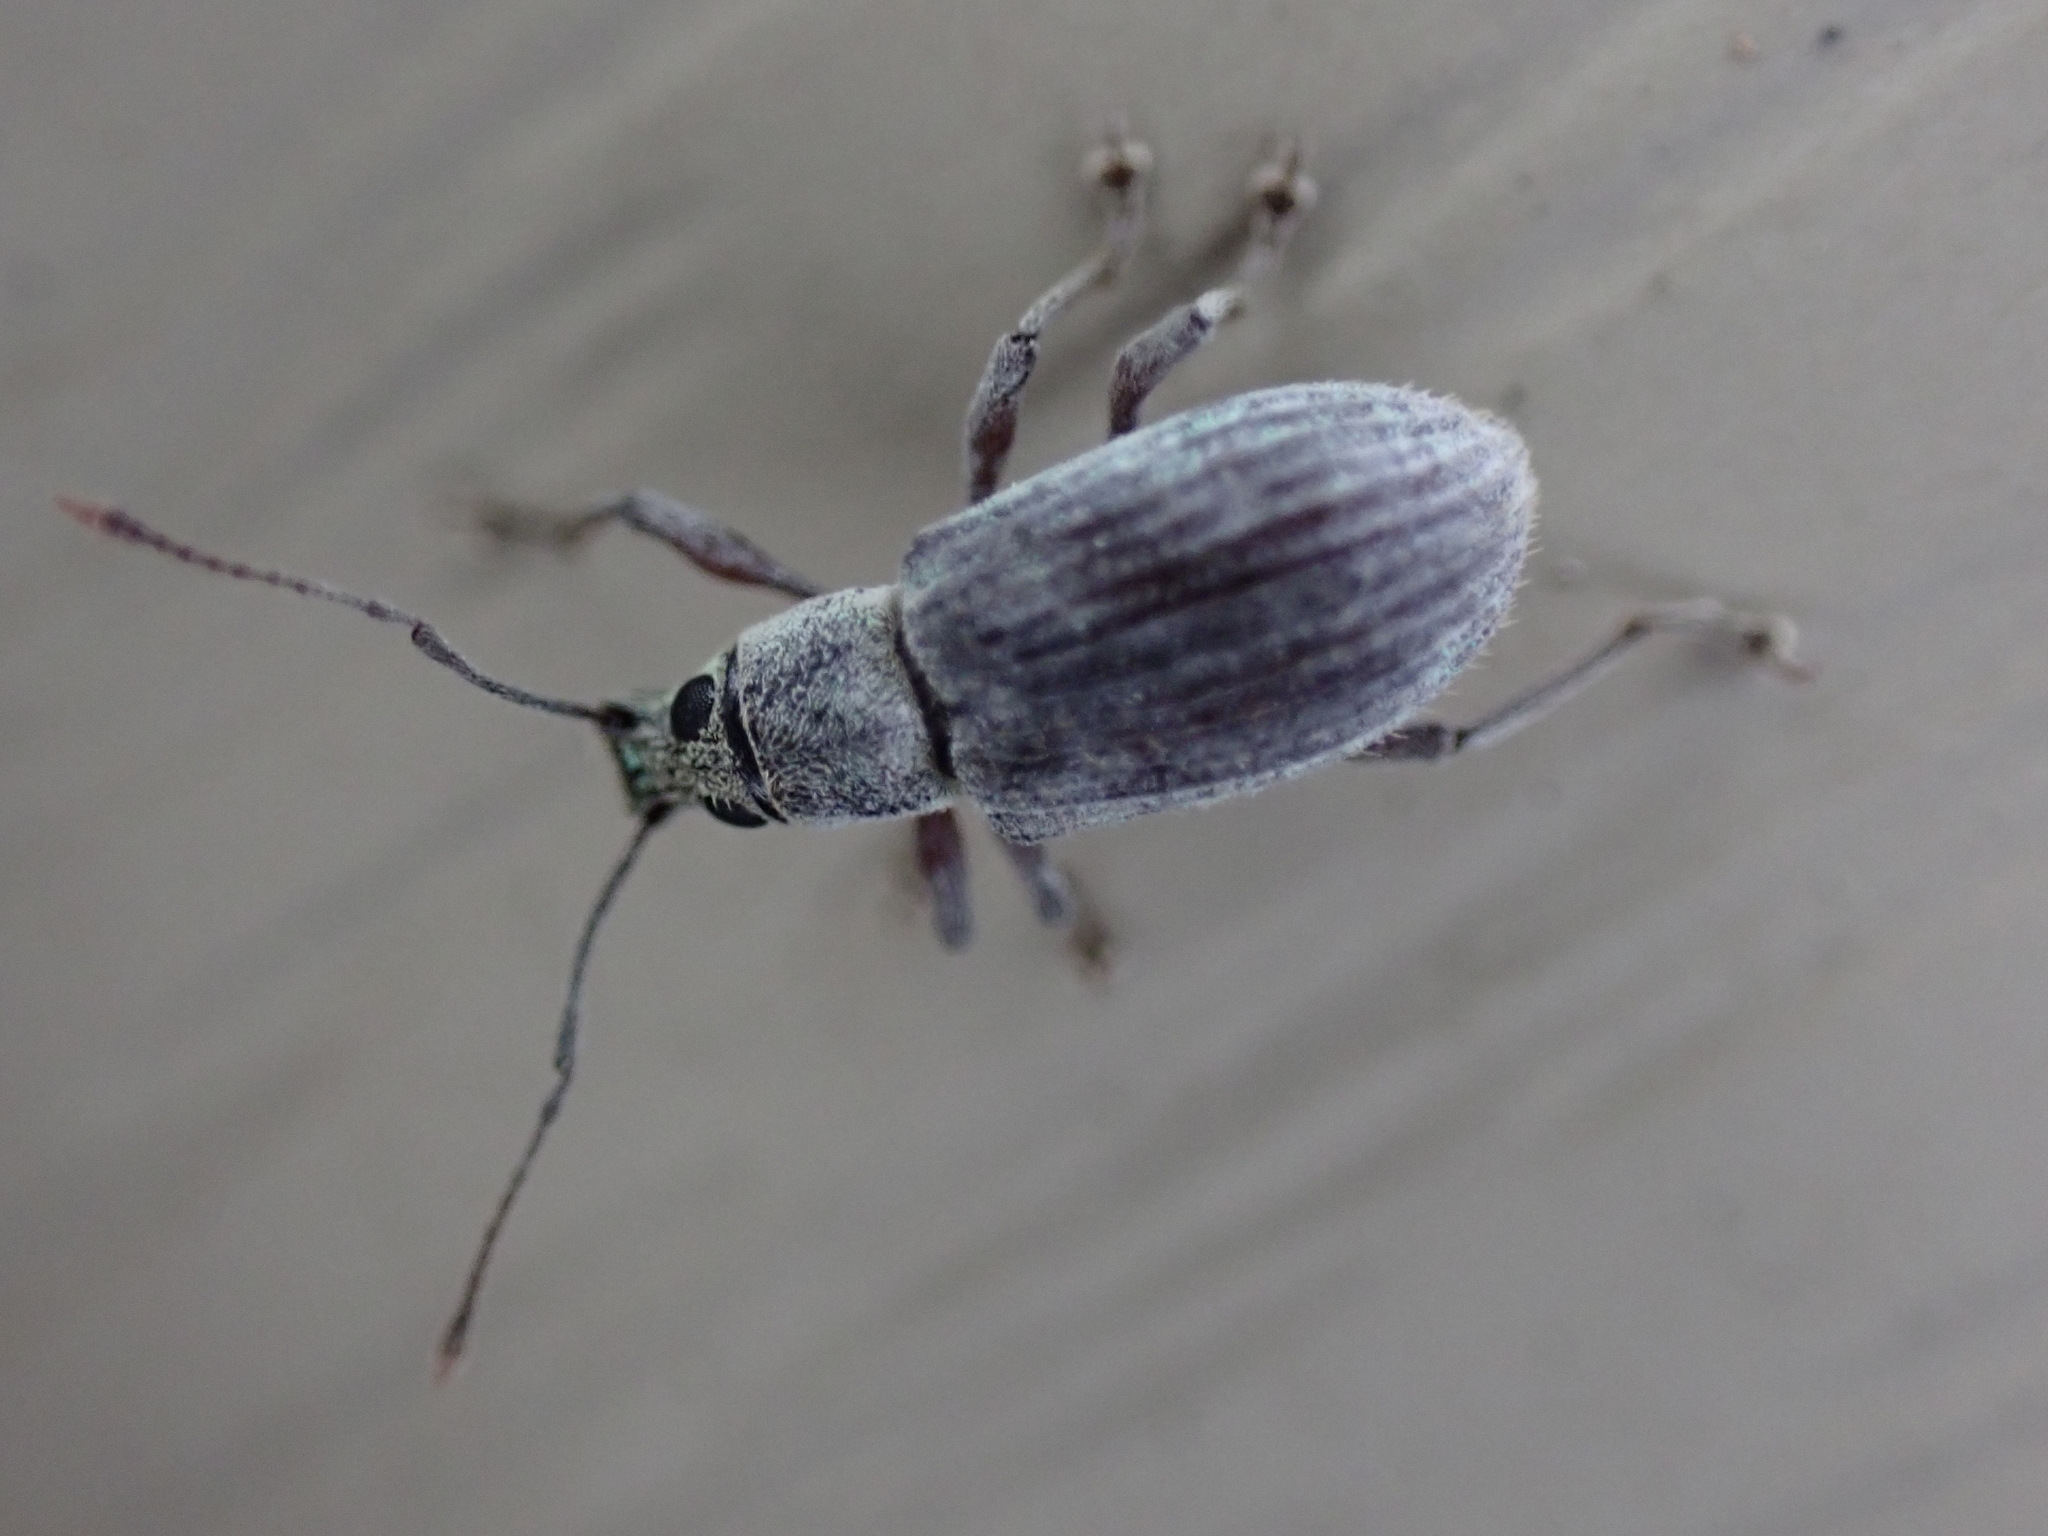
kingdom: Animalia
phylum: Arthropoda
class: Insecta
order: Coleoptera
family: Curculionidae
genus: Cyrtepistomus
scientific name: Cyrtepistomus castaneus
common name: Weevil
